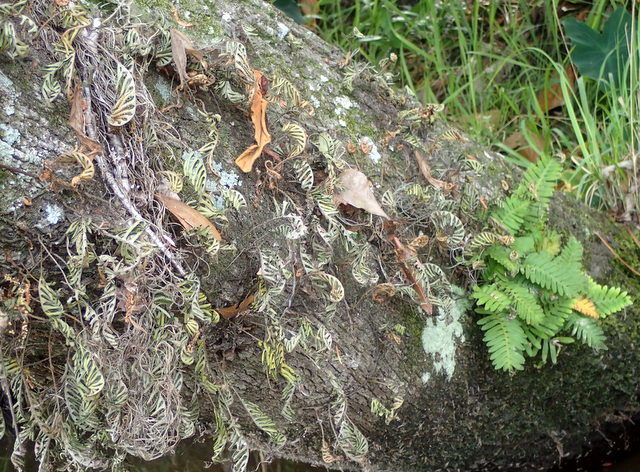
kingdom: Plantae
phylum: Tracheophyta
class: Polypodiopsida
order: Polypodiales
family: Polypodiaceae
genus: Pleopeltis
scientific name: Pleopeltis michauxiana
